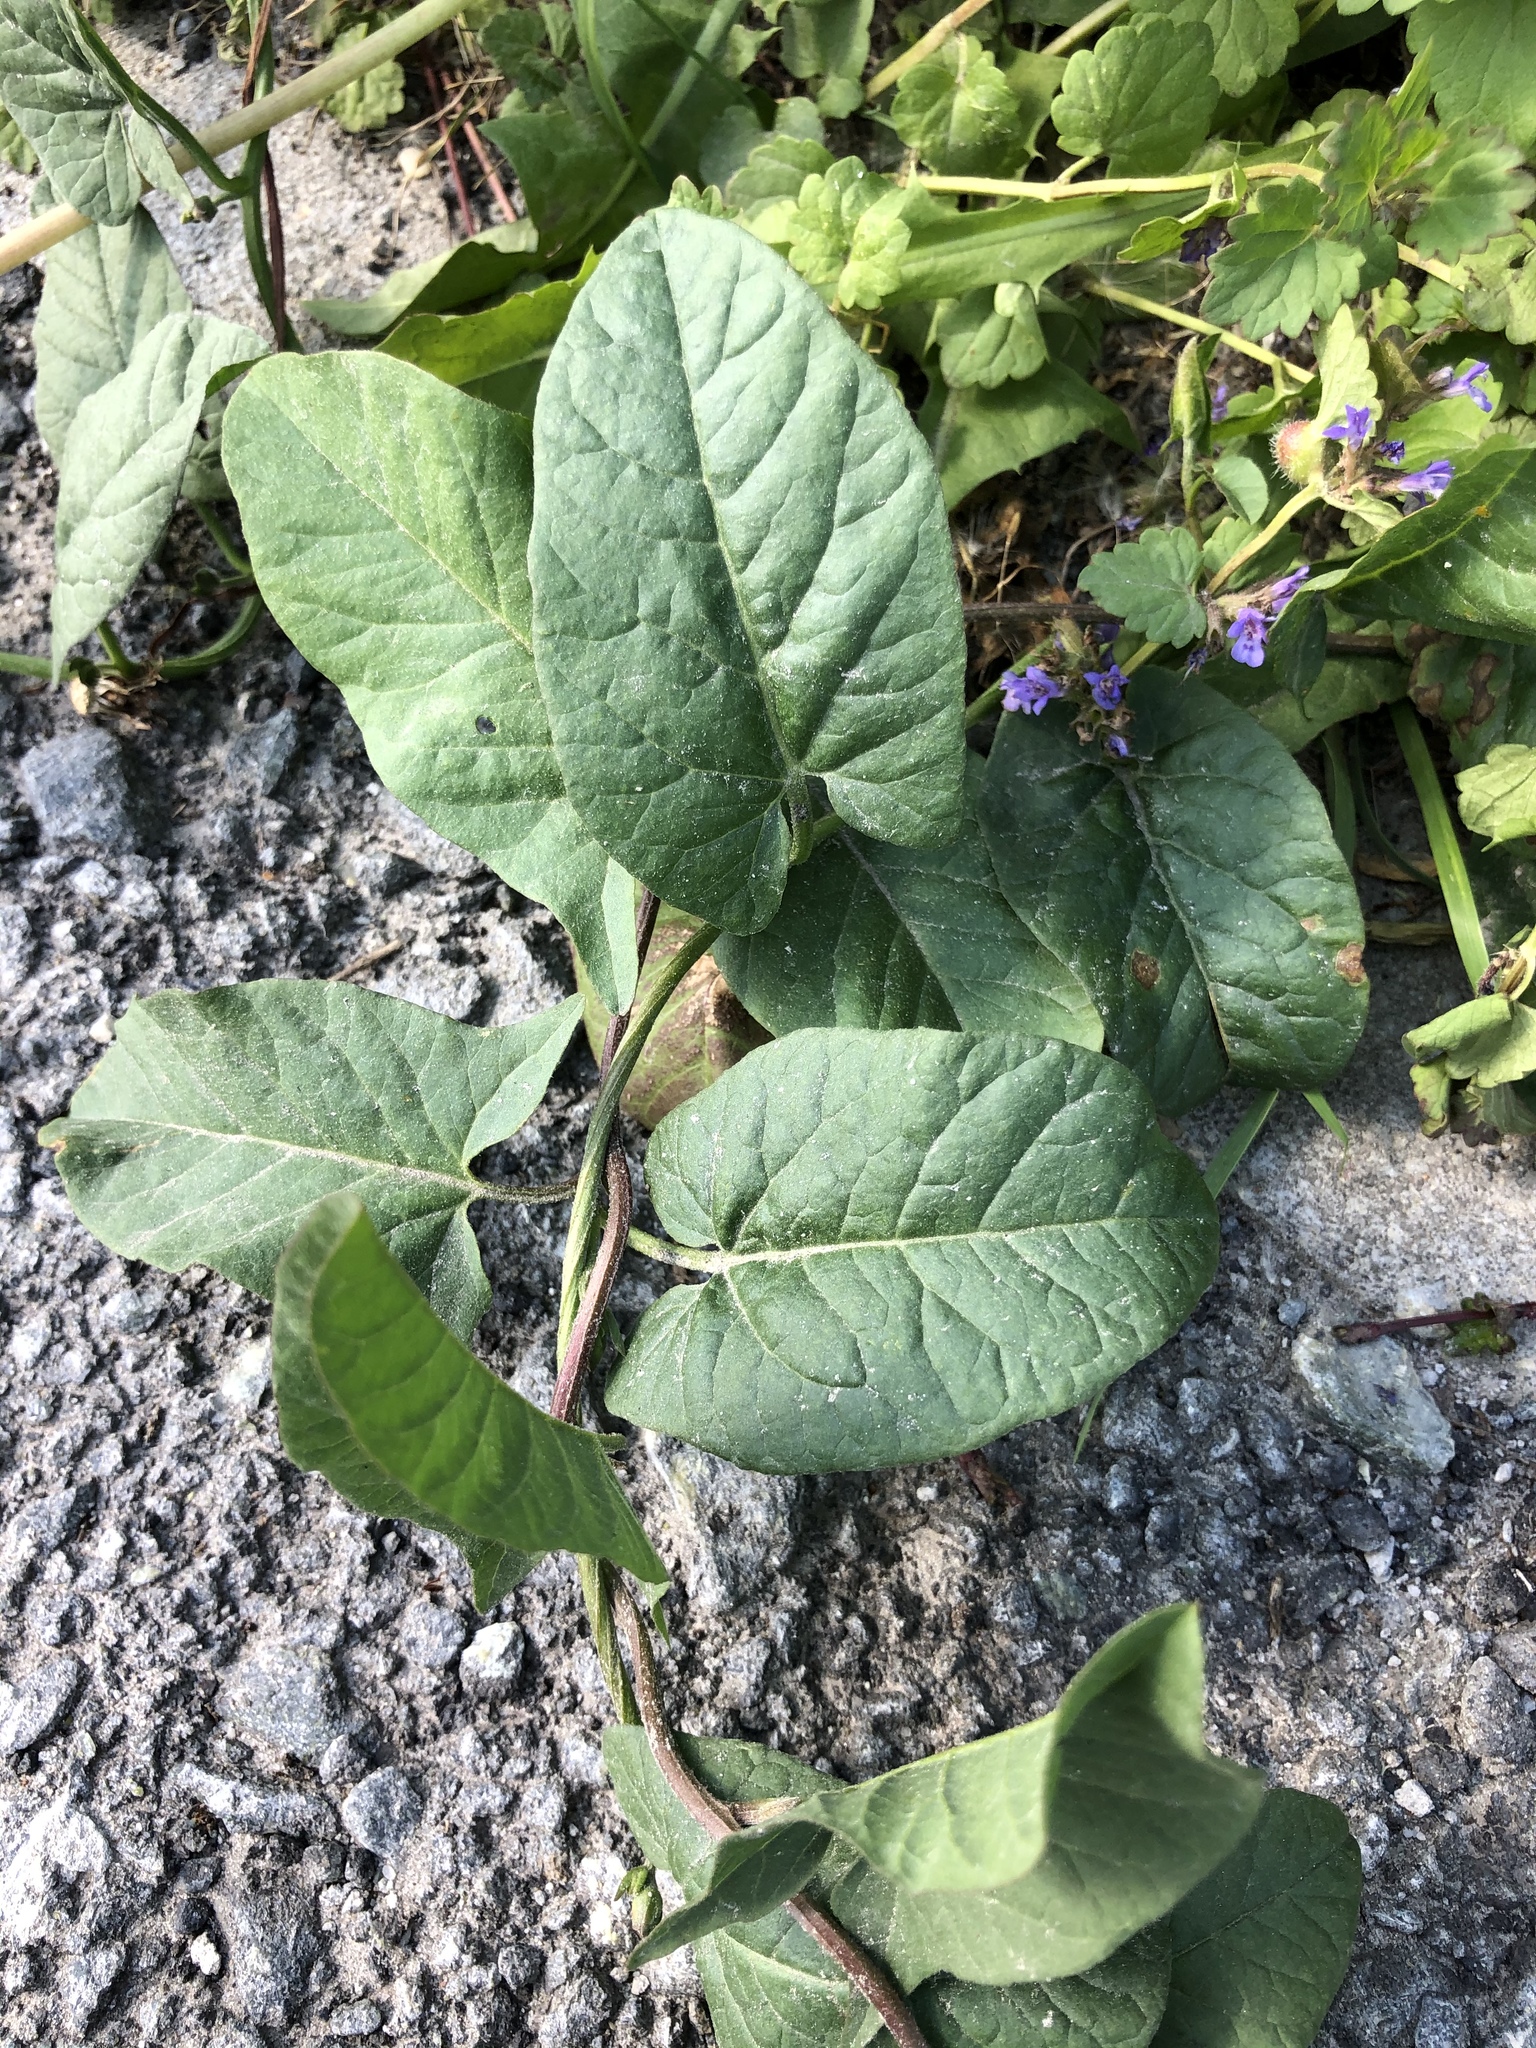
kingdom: Plantae
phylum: Tracheophyta
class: Magnoliopsida
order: Solanales
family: Convolvulaceae
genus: Convolvulus
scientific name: Convolvulus arvensis
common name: Field bindweed
